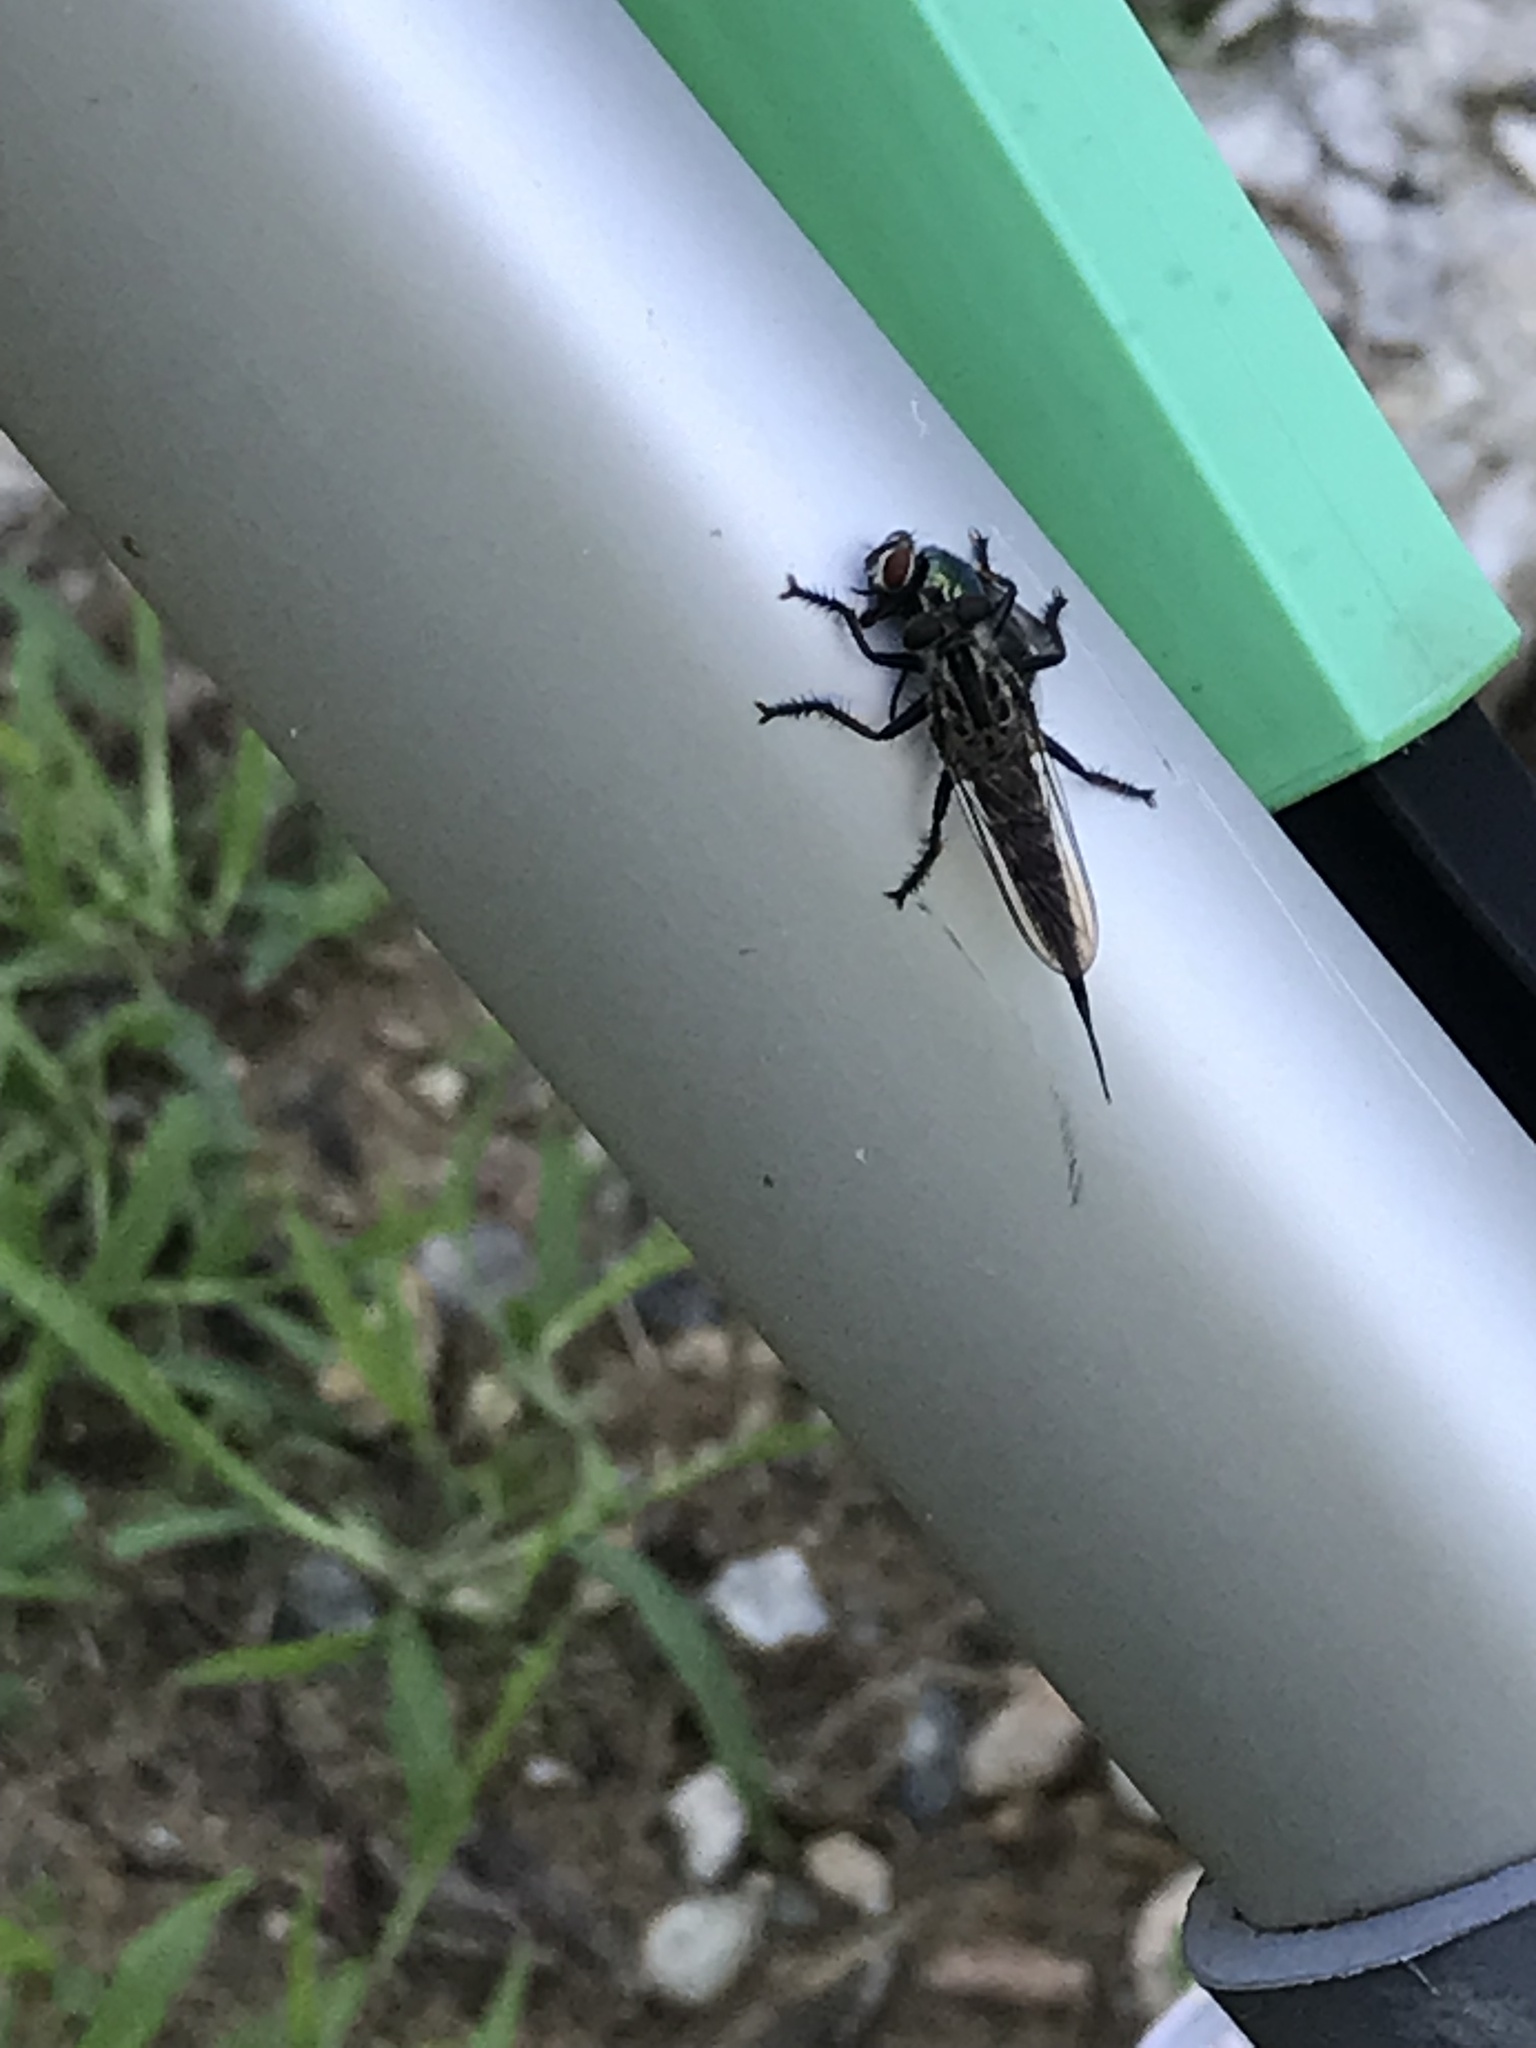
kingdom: Animalia
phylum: Arthropoda
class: Insecta
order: Diptera
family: Asilidae
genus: Efferia
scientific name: Efferia aestuans
